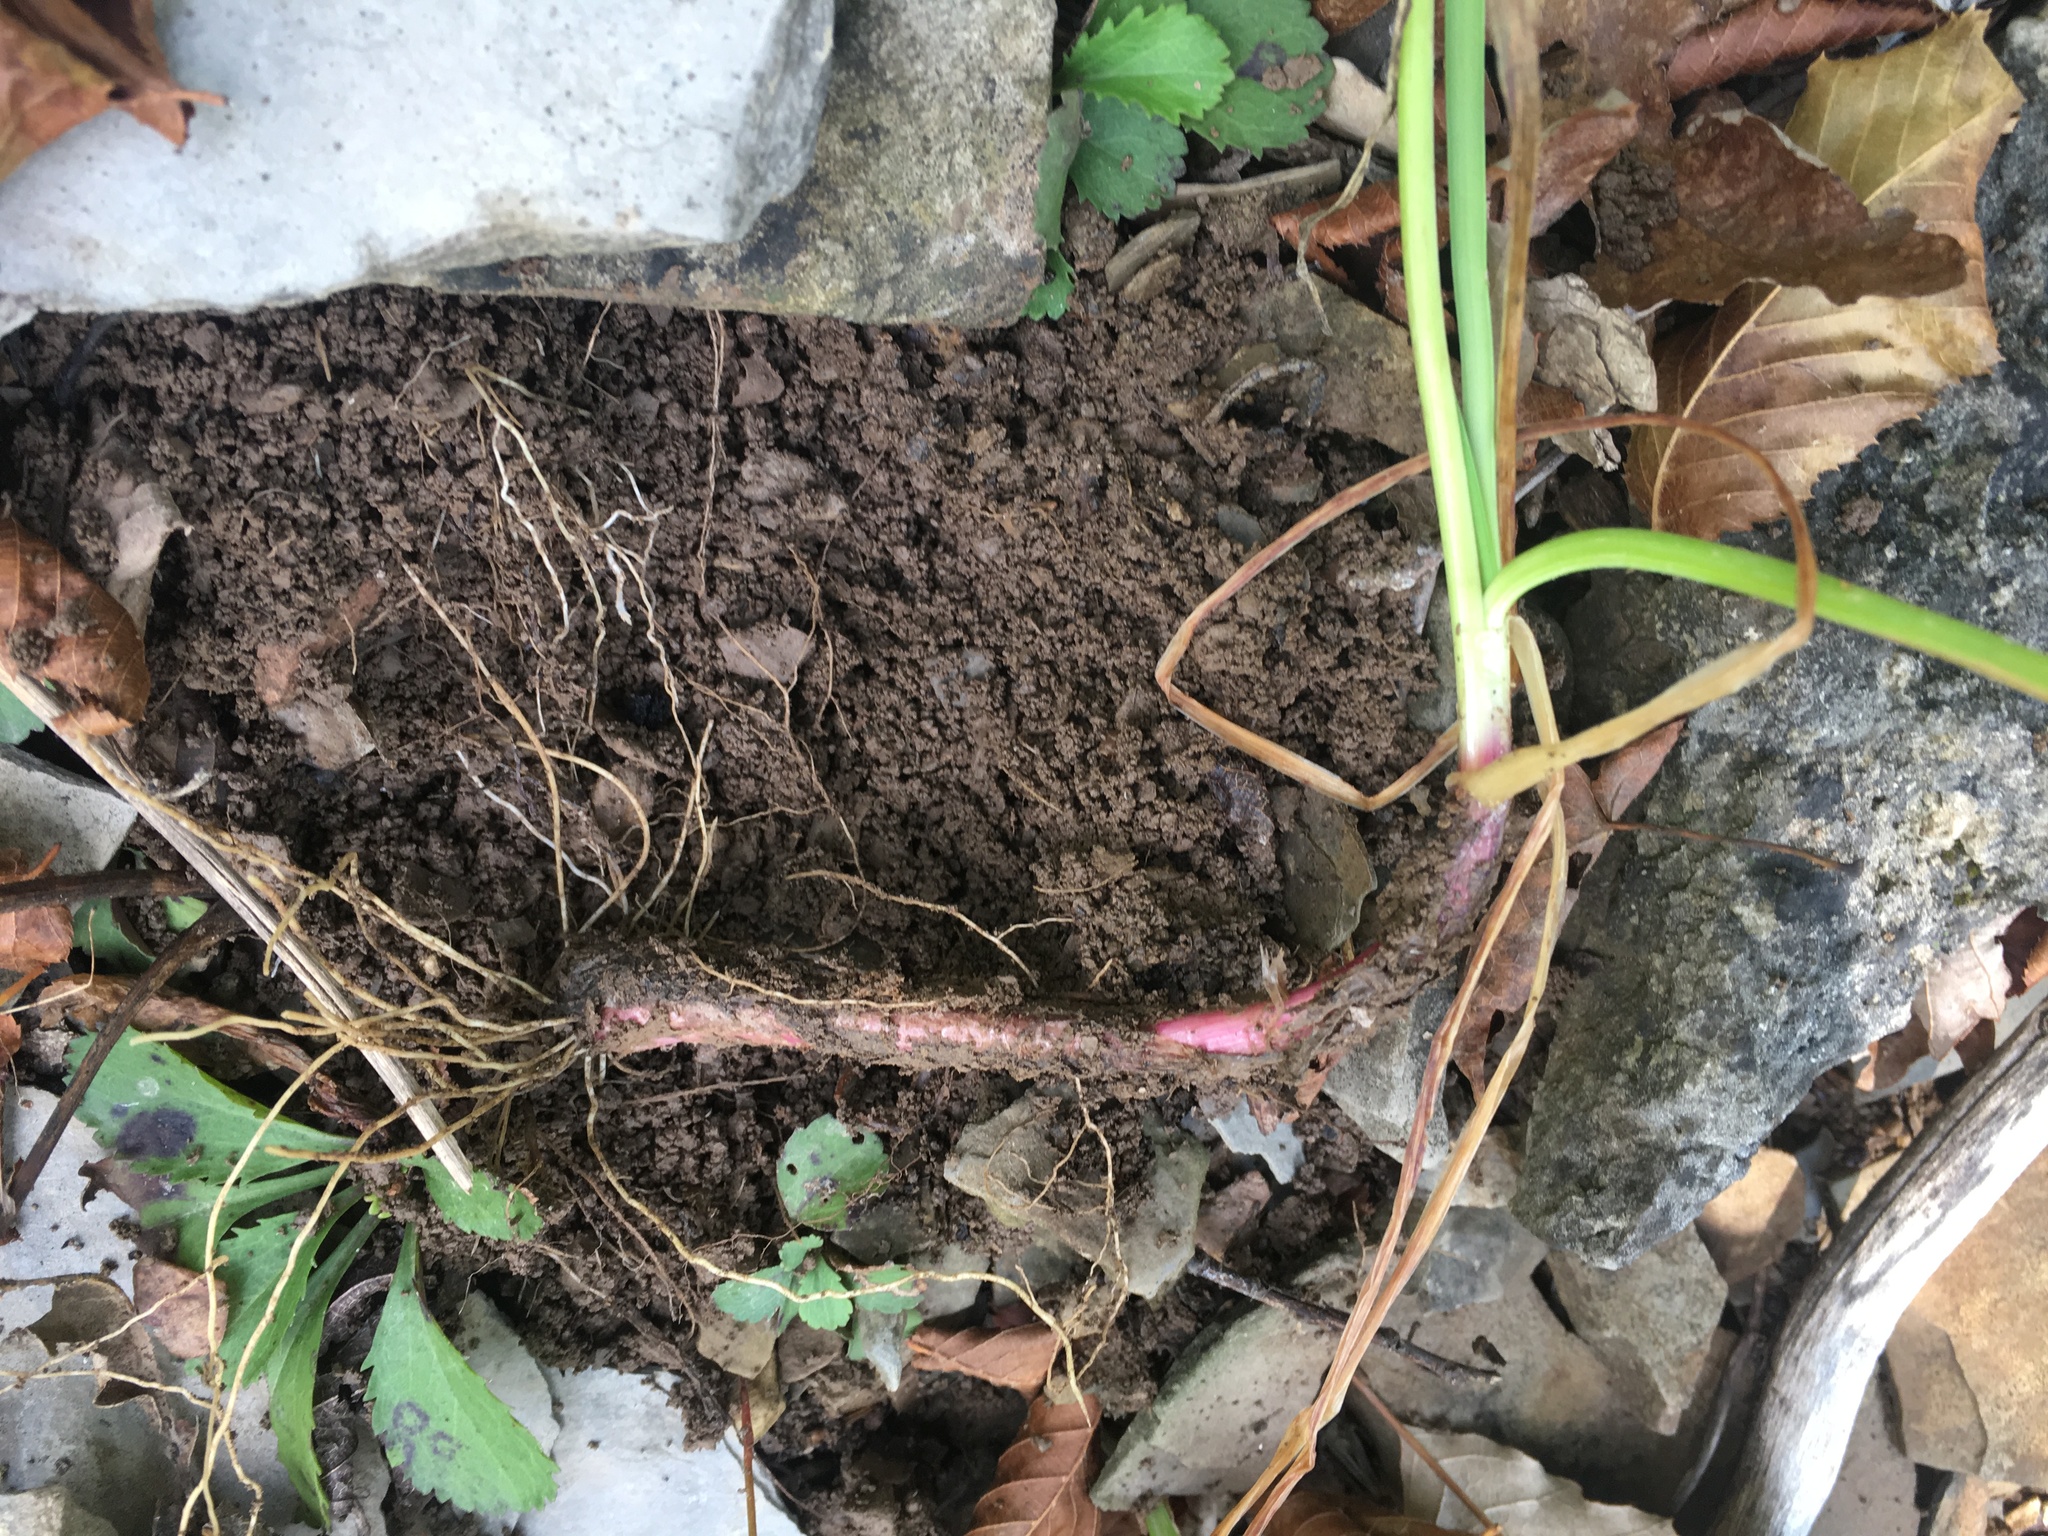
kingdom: Plantae
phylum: Tracheophyta
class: Liliopsida
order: Asparagales
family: Amaryllidaceae
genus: Allium
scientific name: Allium cernuum
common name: Nodding onion
